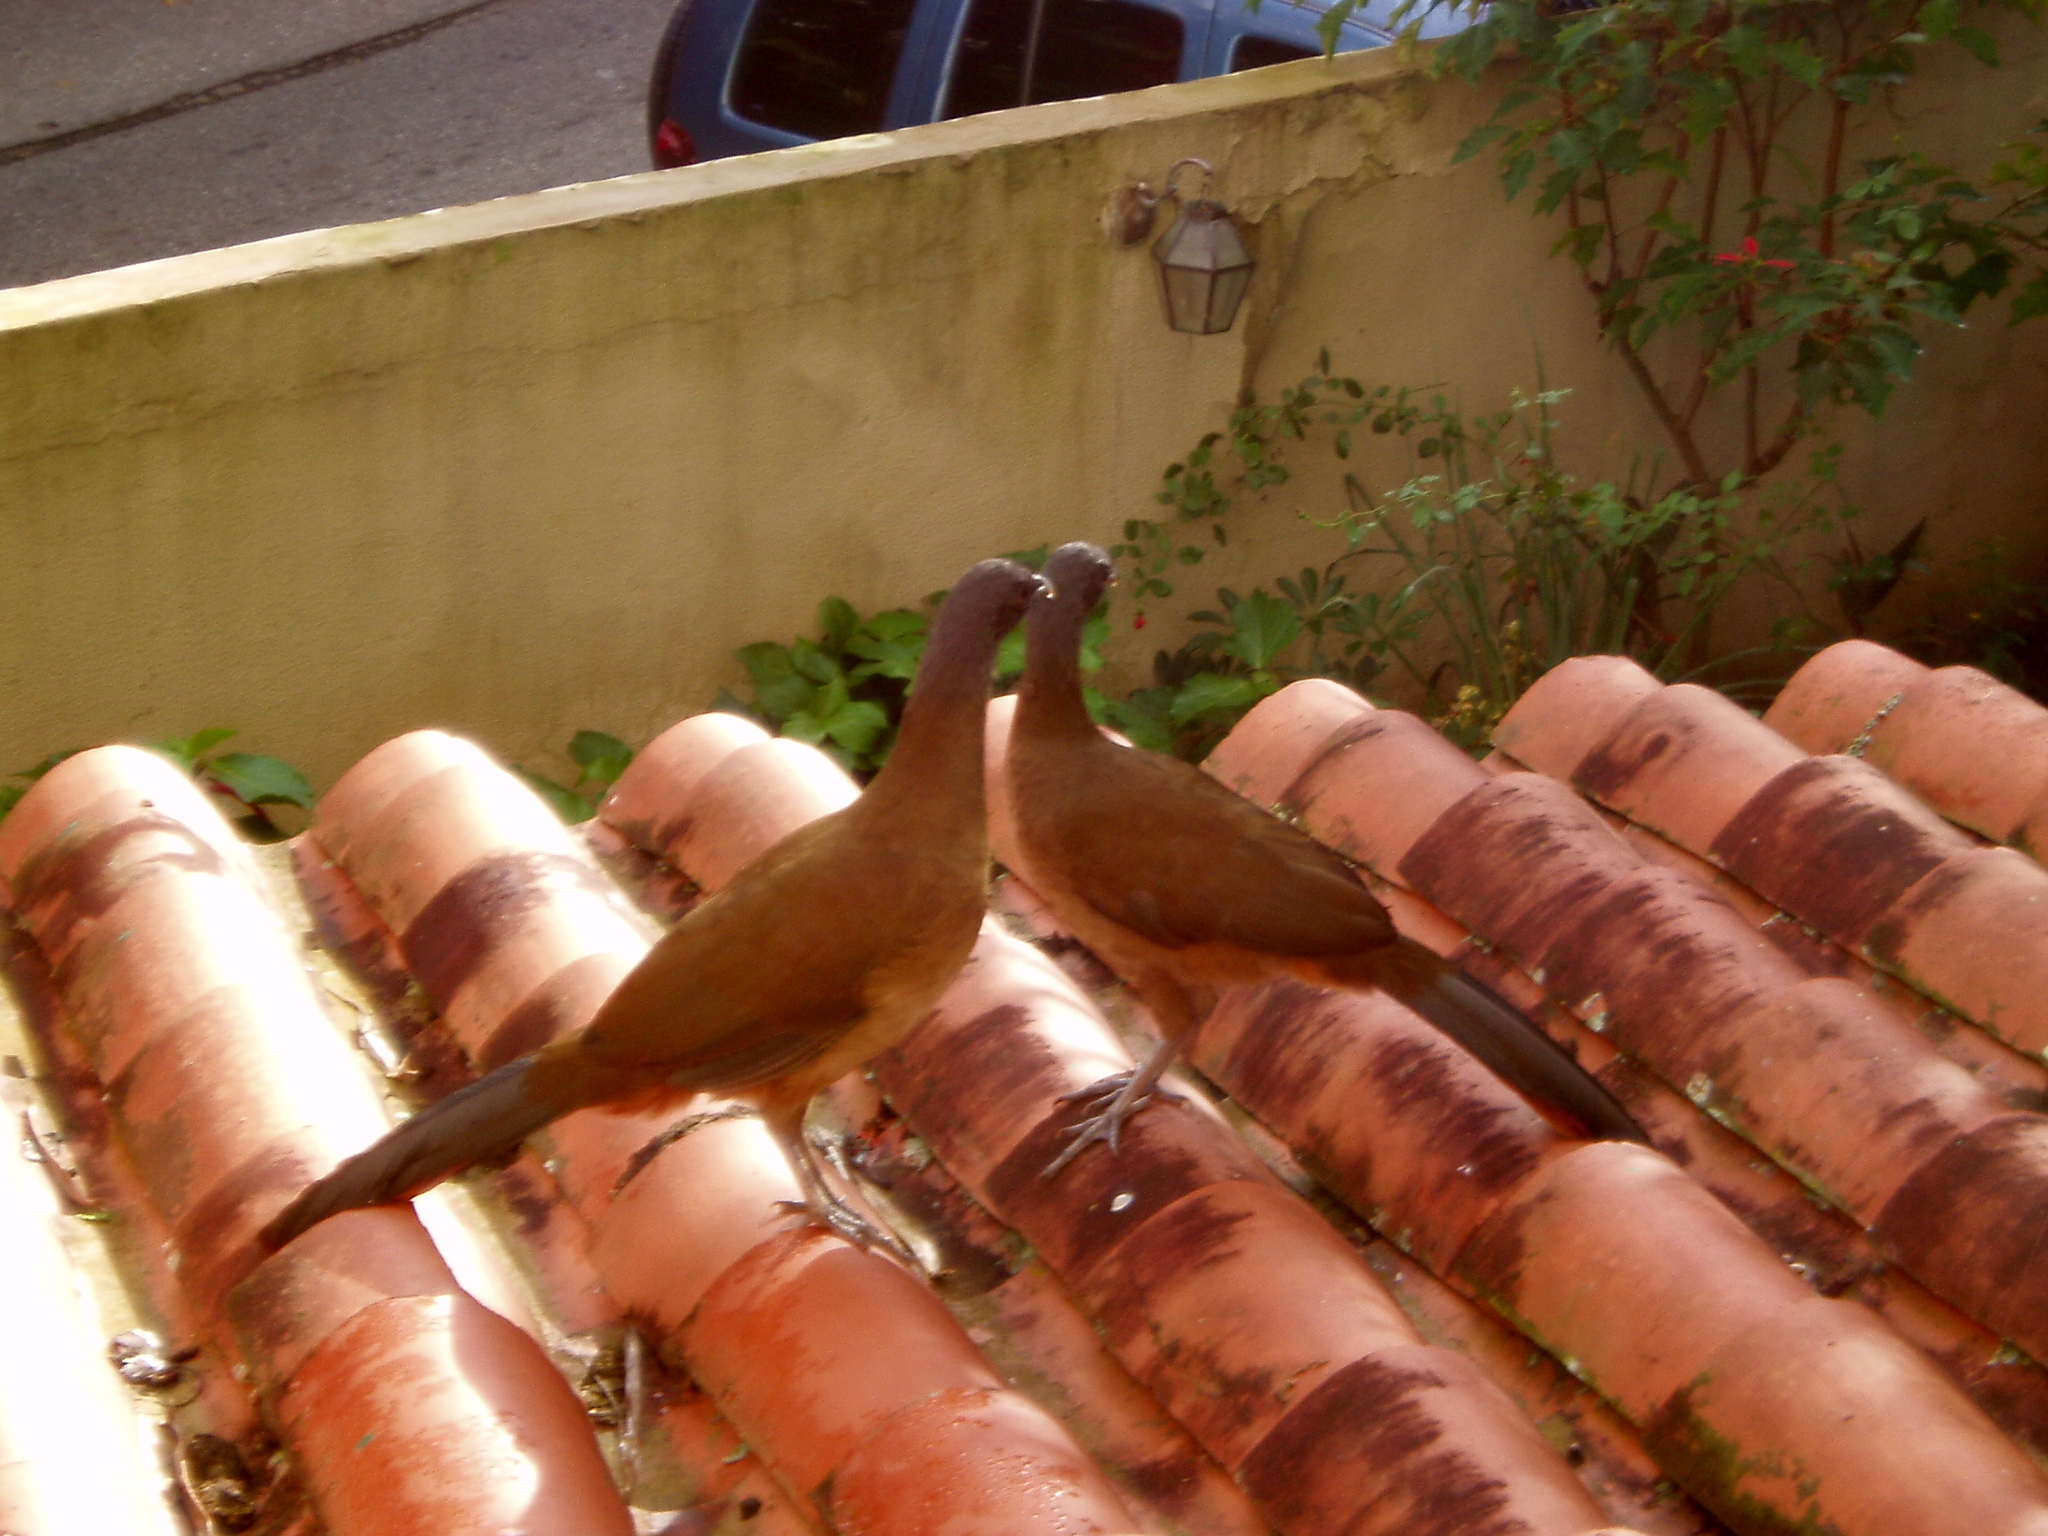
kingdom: Animalia
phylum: Chordata
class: Aves
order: Galliformes
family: Cracidae
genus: Ortalis
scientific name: Ortalis ruficauda
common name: Rufous-vented chachalaca
